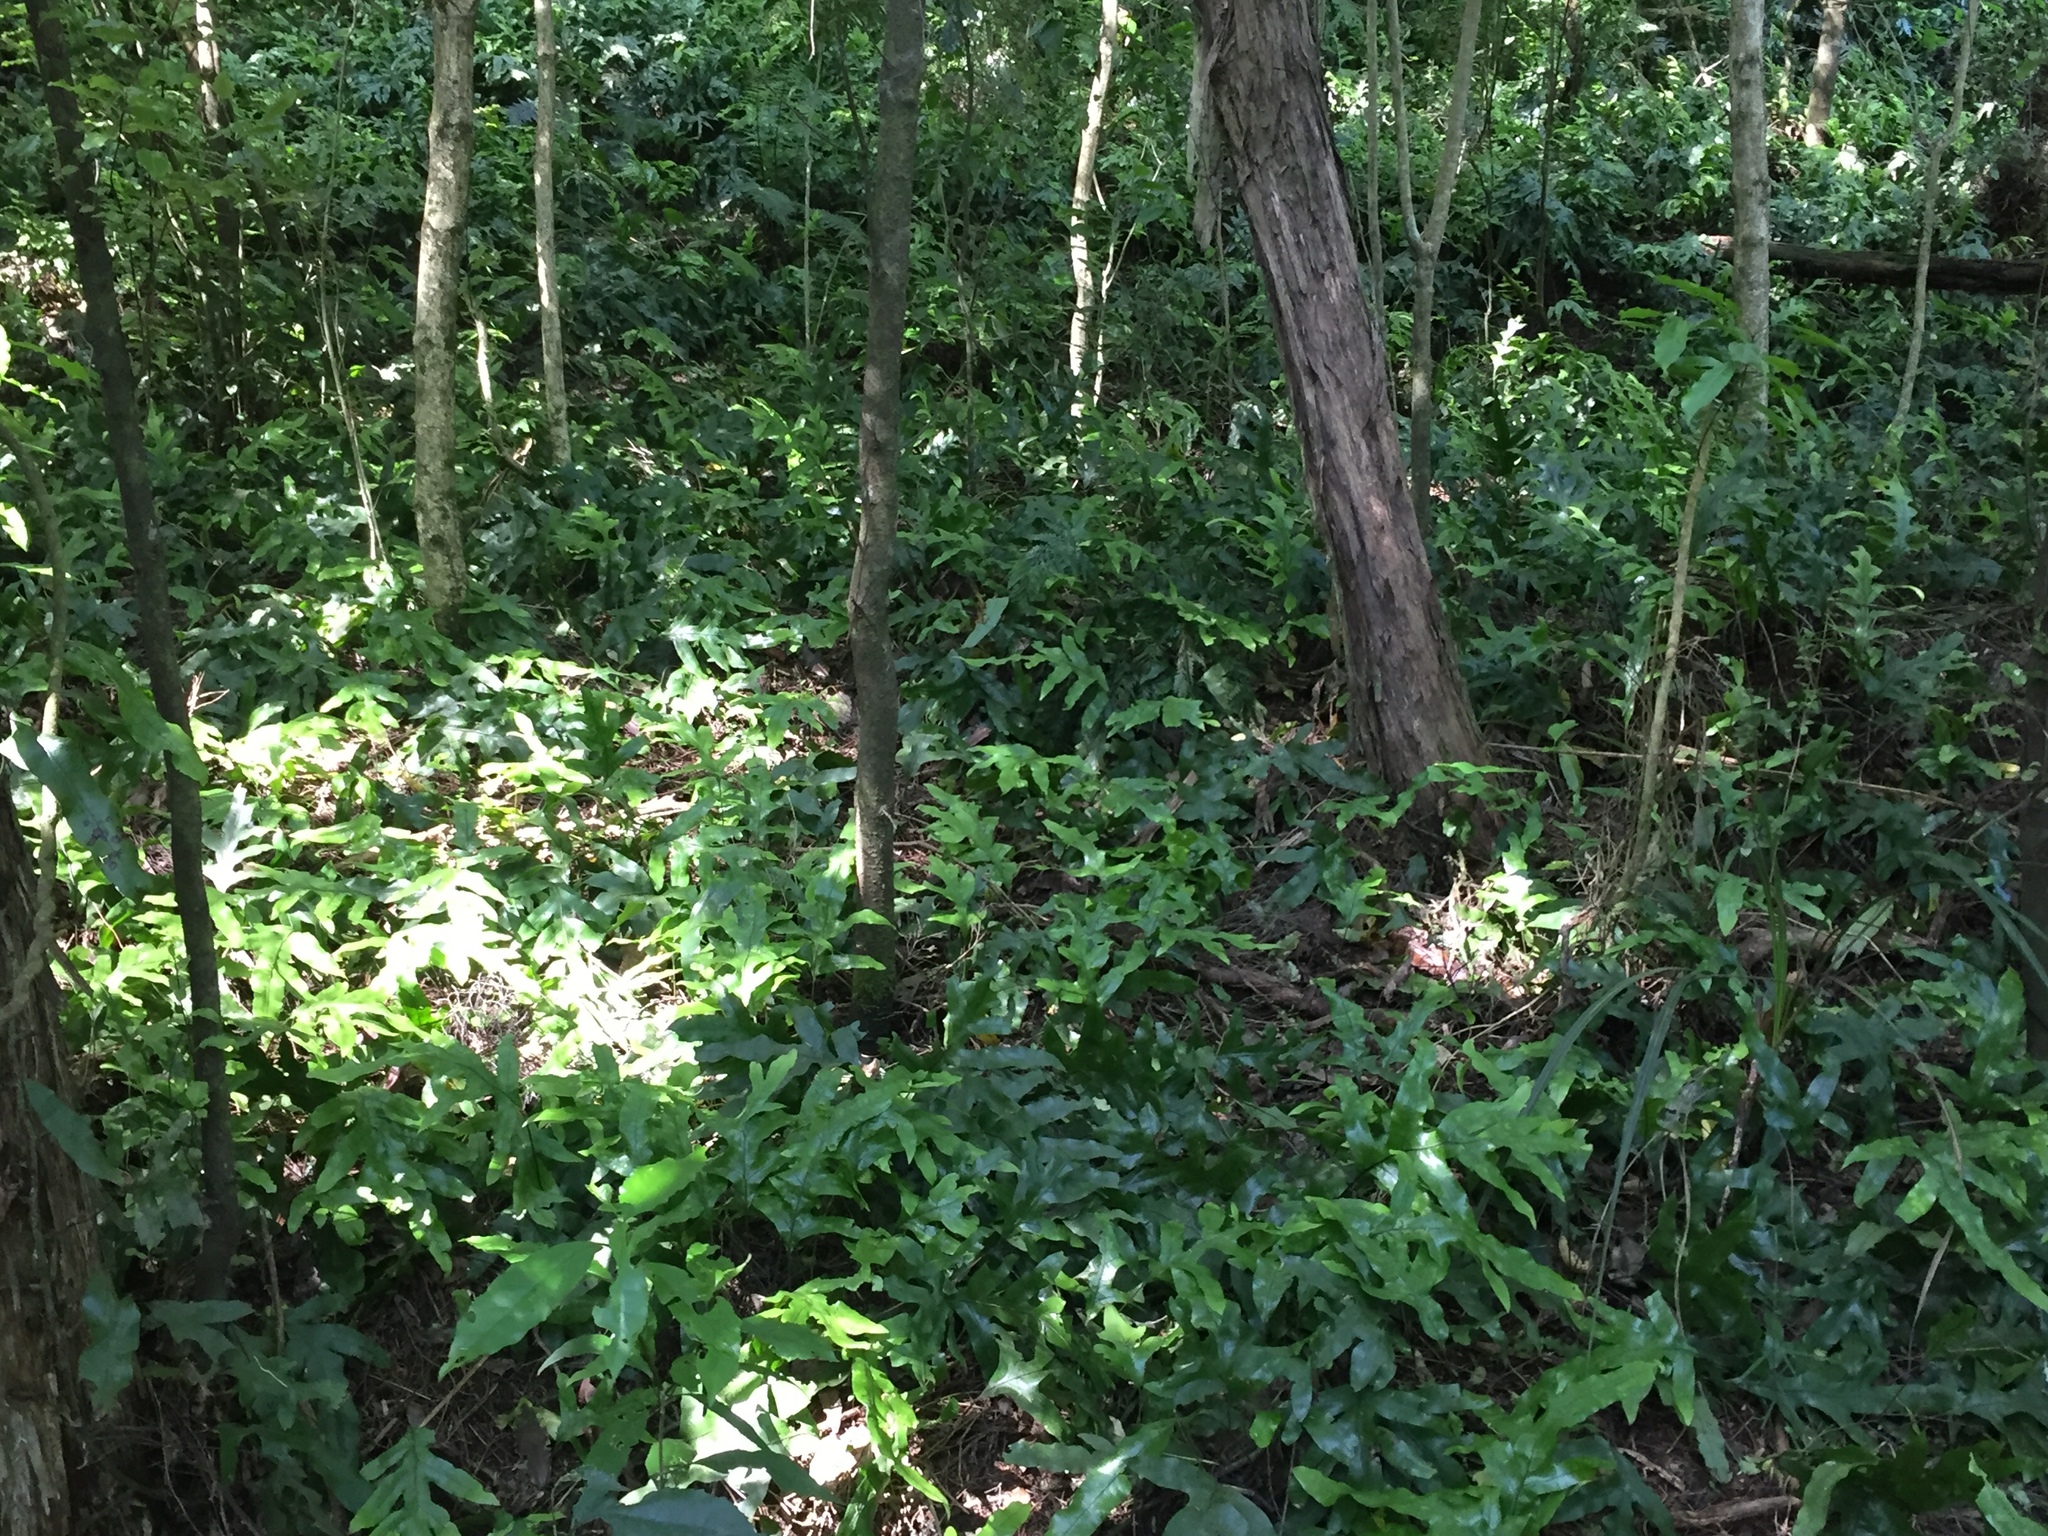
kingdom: Plantae
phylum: Tracheophyta
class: Polypodiopsida
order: Polypodiales
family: Polypodiaceae
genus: Lecanopteris
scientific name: Lecanopteris pustulata
